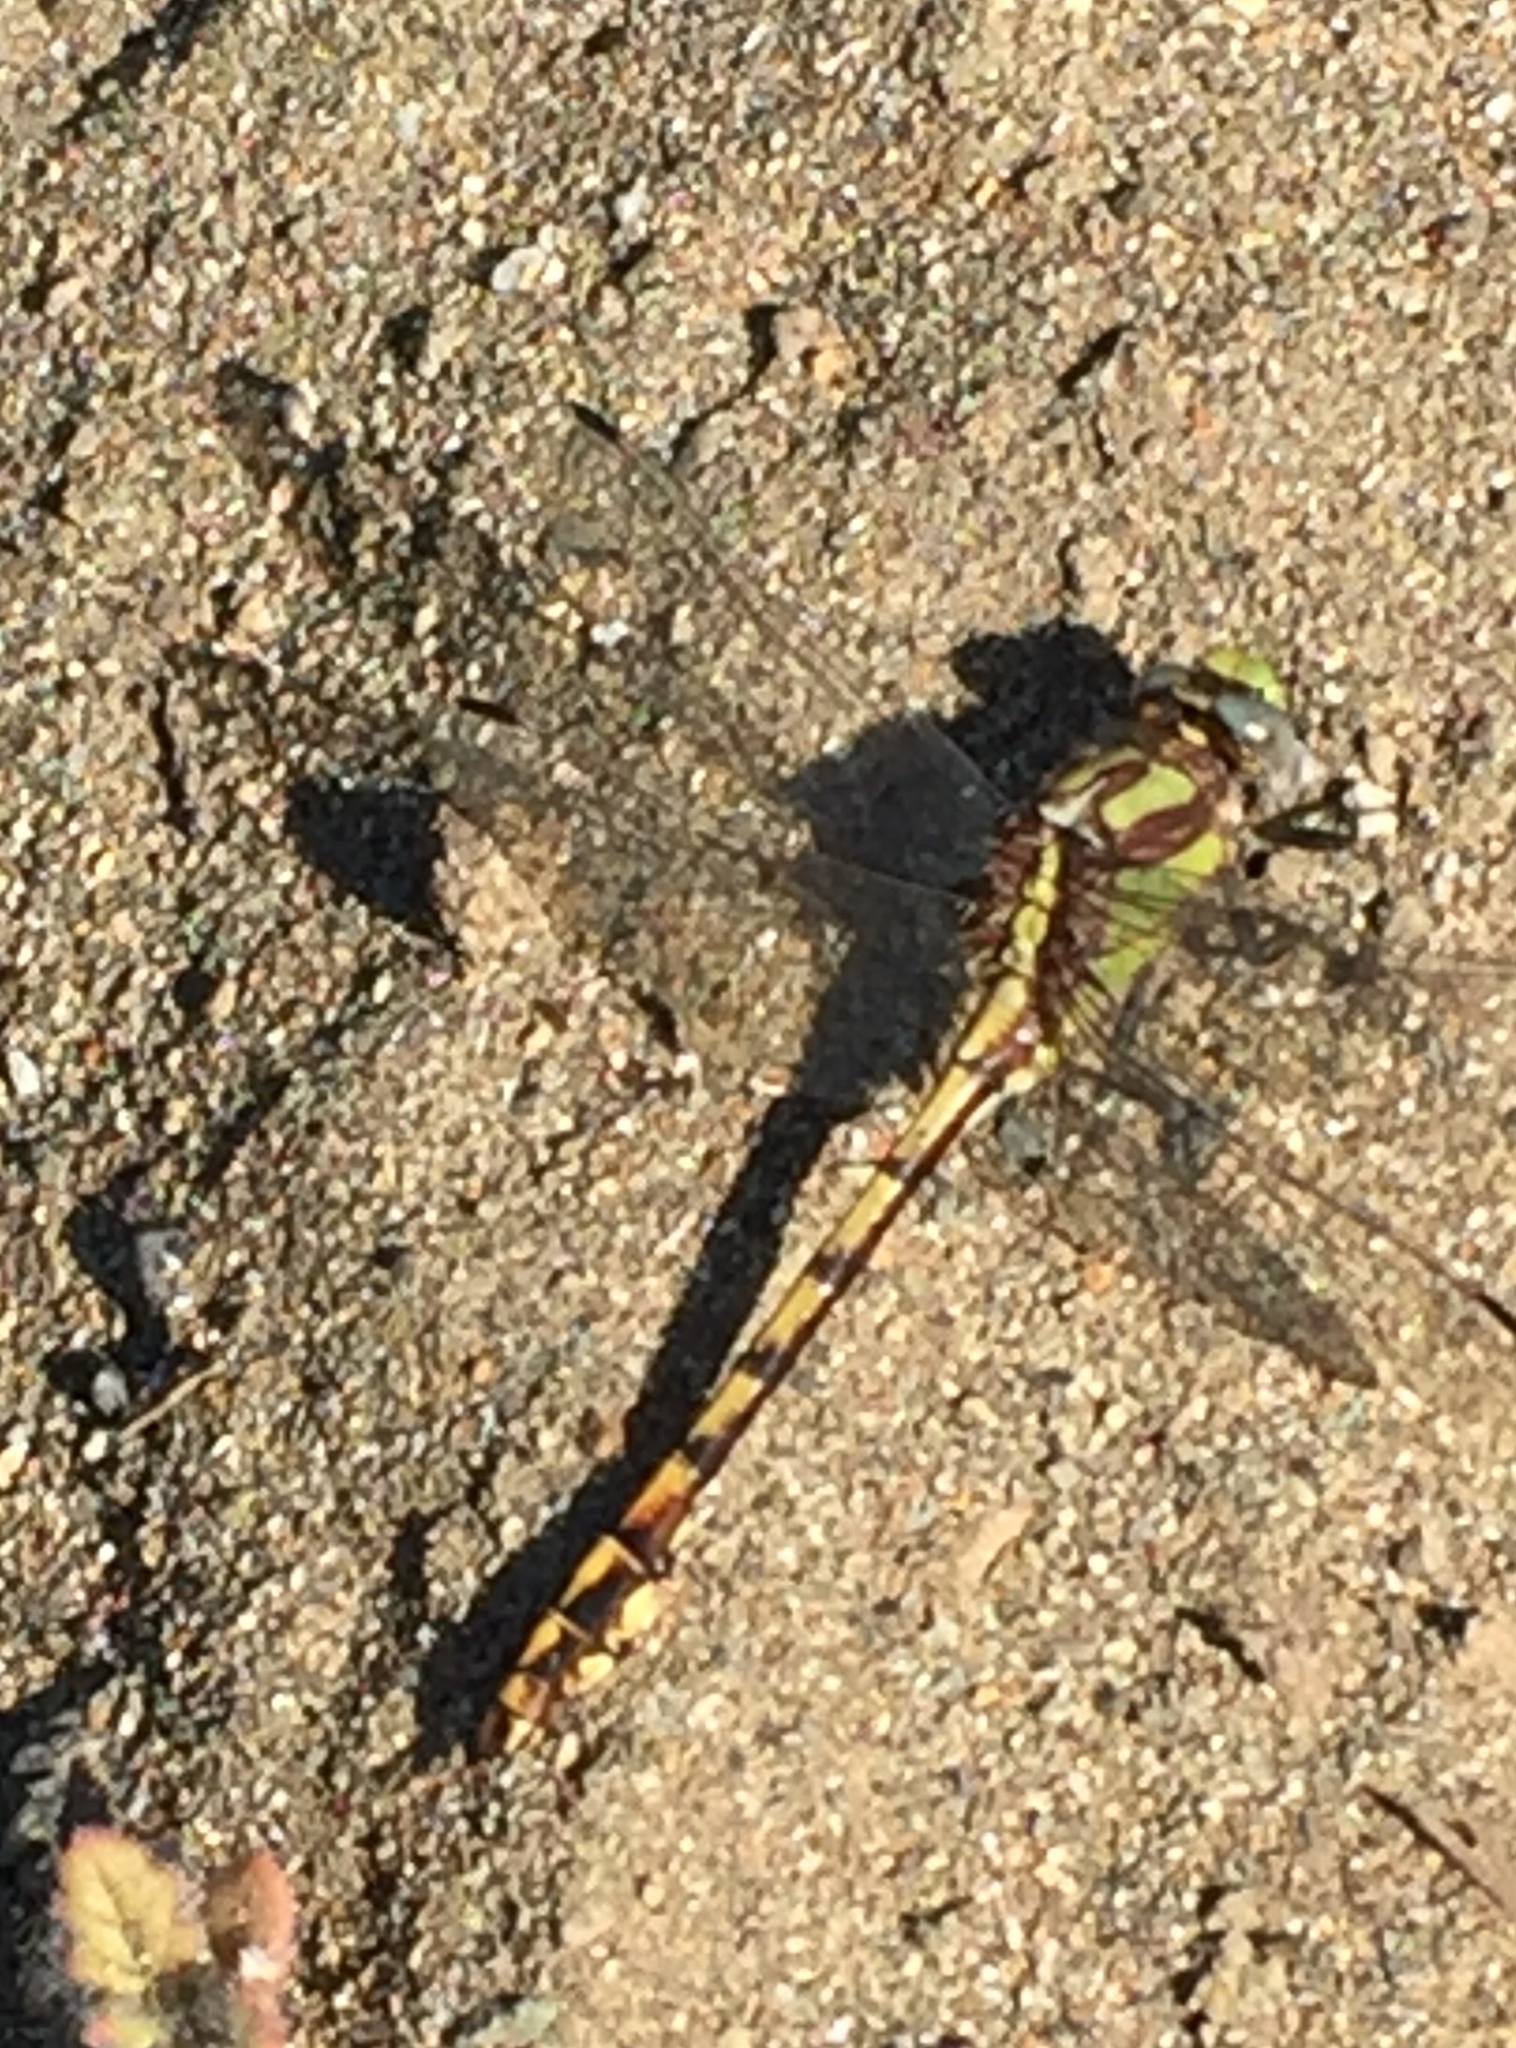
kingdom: Animalia
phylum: Arthropoda
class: Insecta
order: Odonata
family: Gomphidae
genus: Ophiogomphus
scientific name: Ophiogomphus bison
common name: Bison snaketail
